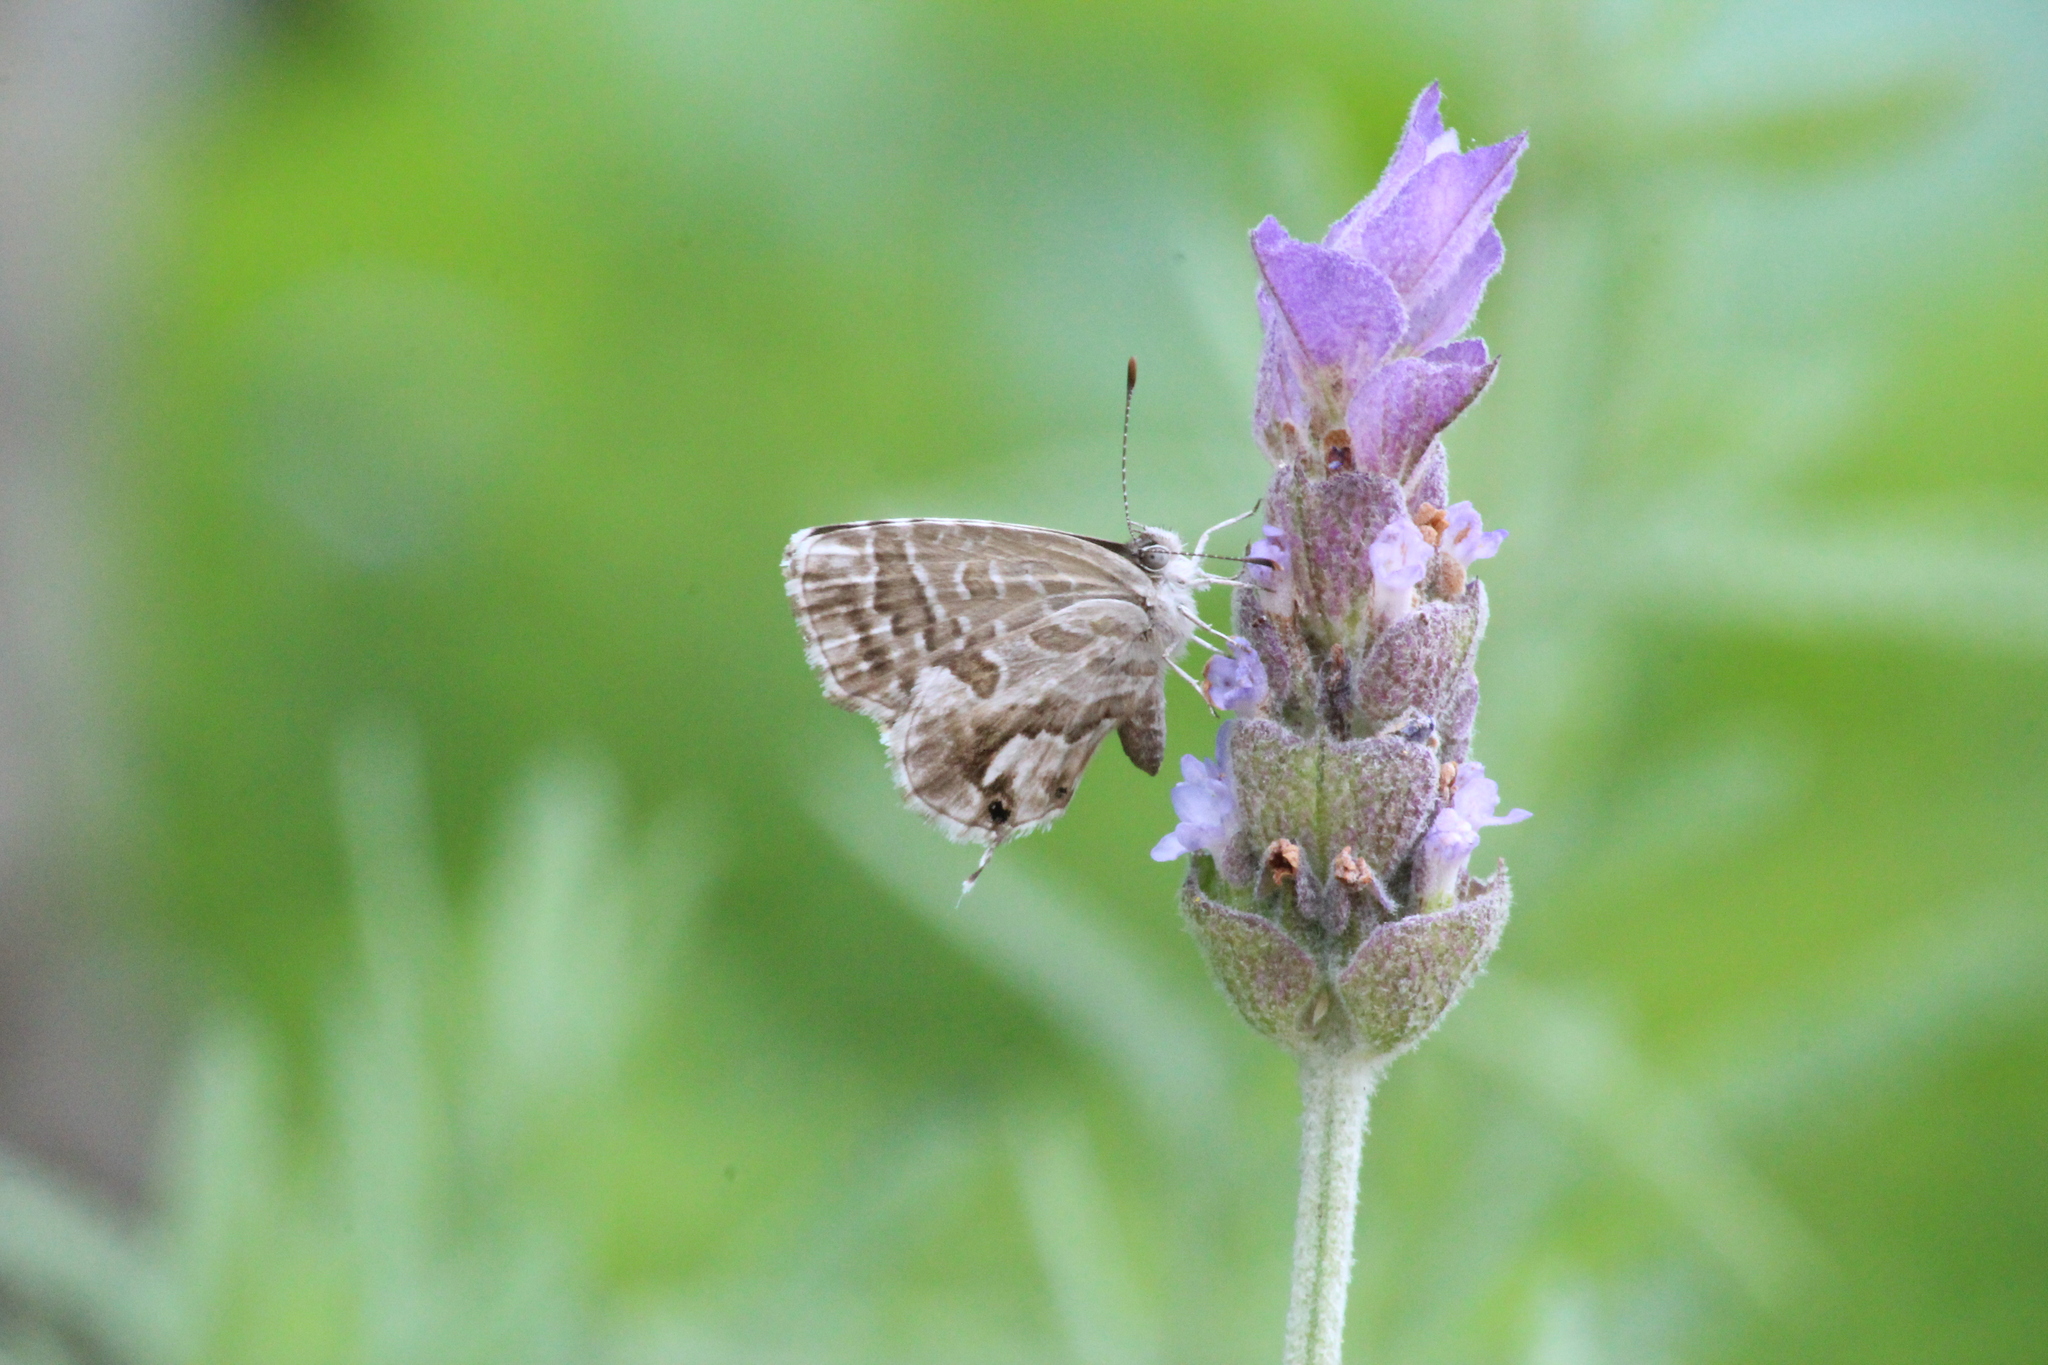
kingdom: Animalia
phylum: Arthropoda
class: Insecta
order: Lepidoptera
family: Lycaenidae
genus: Cacyreus
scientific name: Cacyreus marshalli
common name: Geranium bronze
